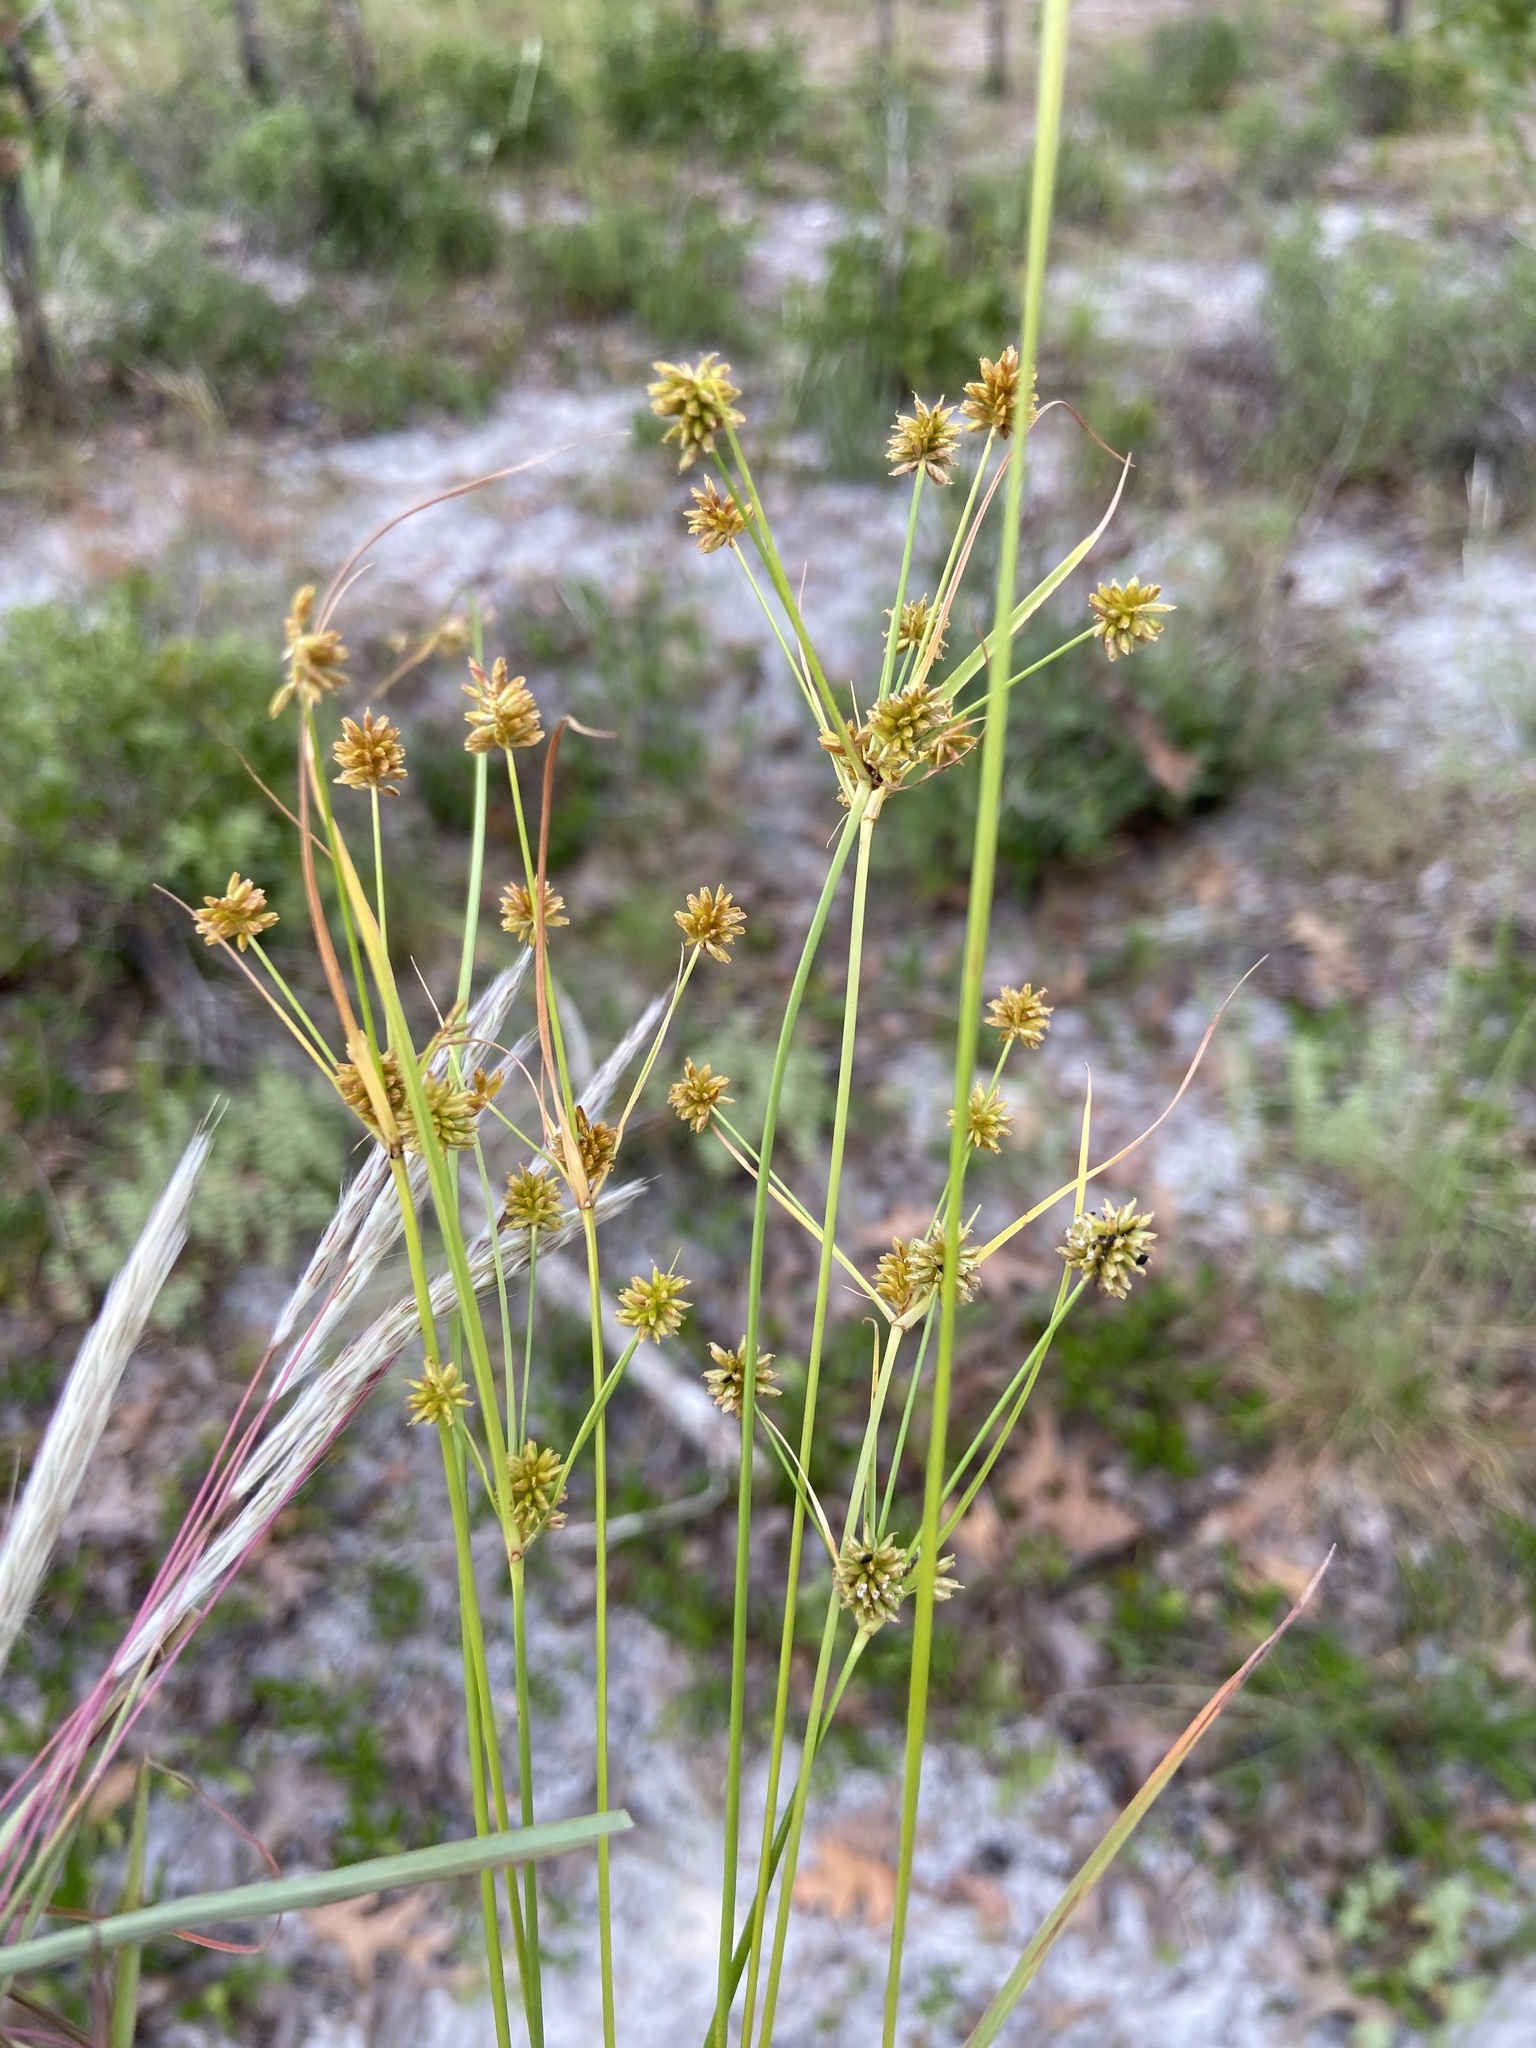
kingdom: Plantae
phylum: Tracheophyta
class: Liliopsida
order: Poales
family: Cyperaceae
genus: Cyperus
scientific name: Cyperus retrorsus
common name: Pinebarren flat sedge
